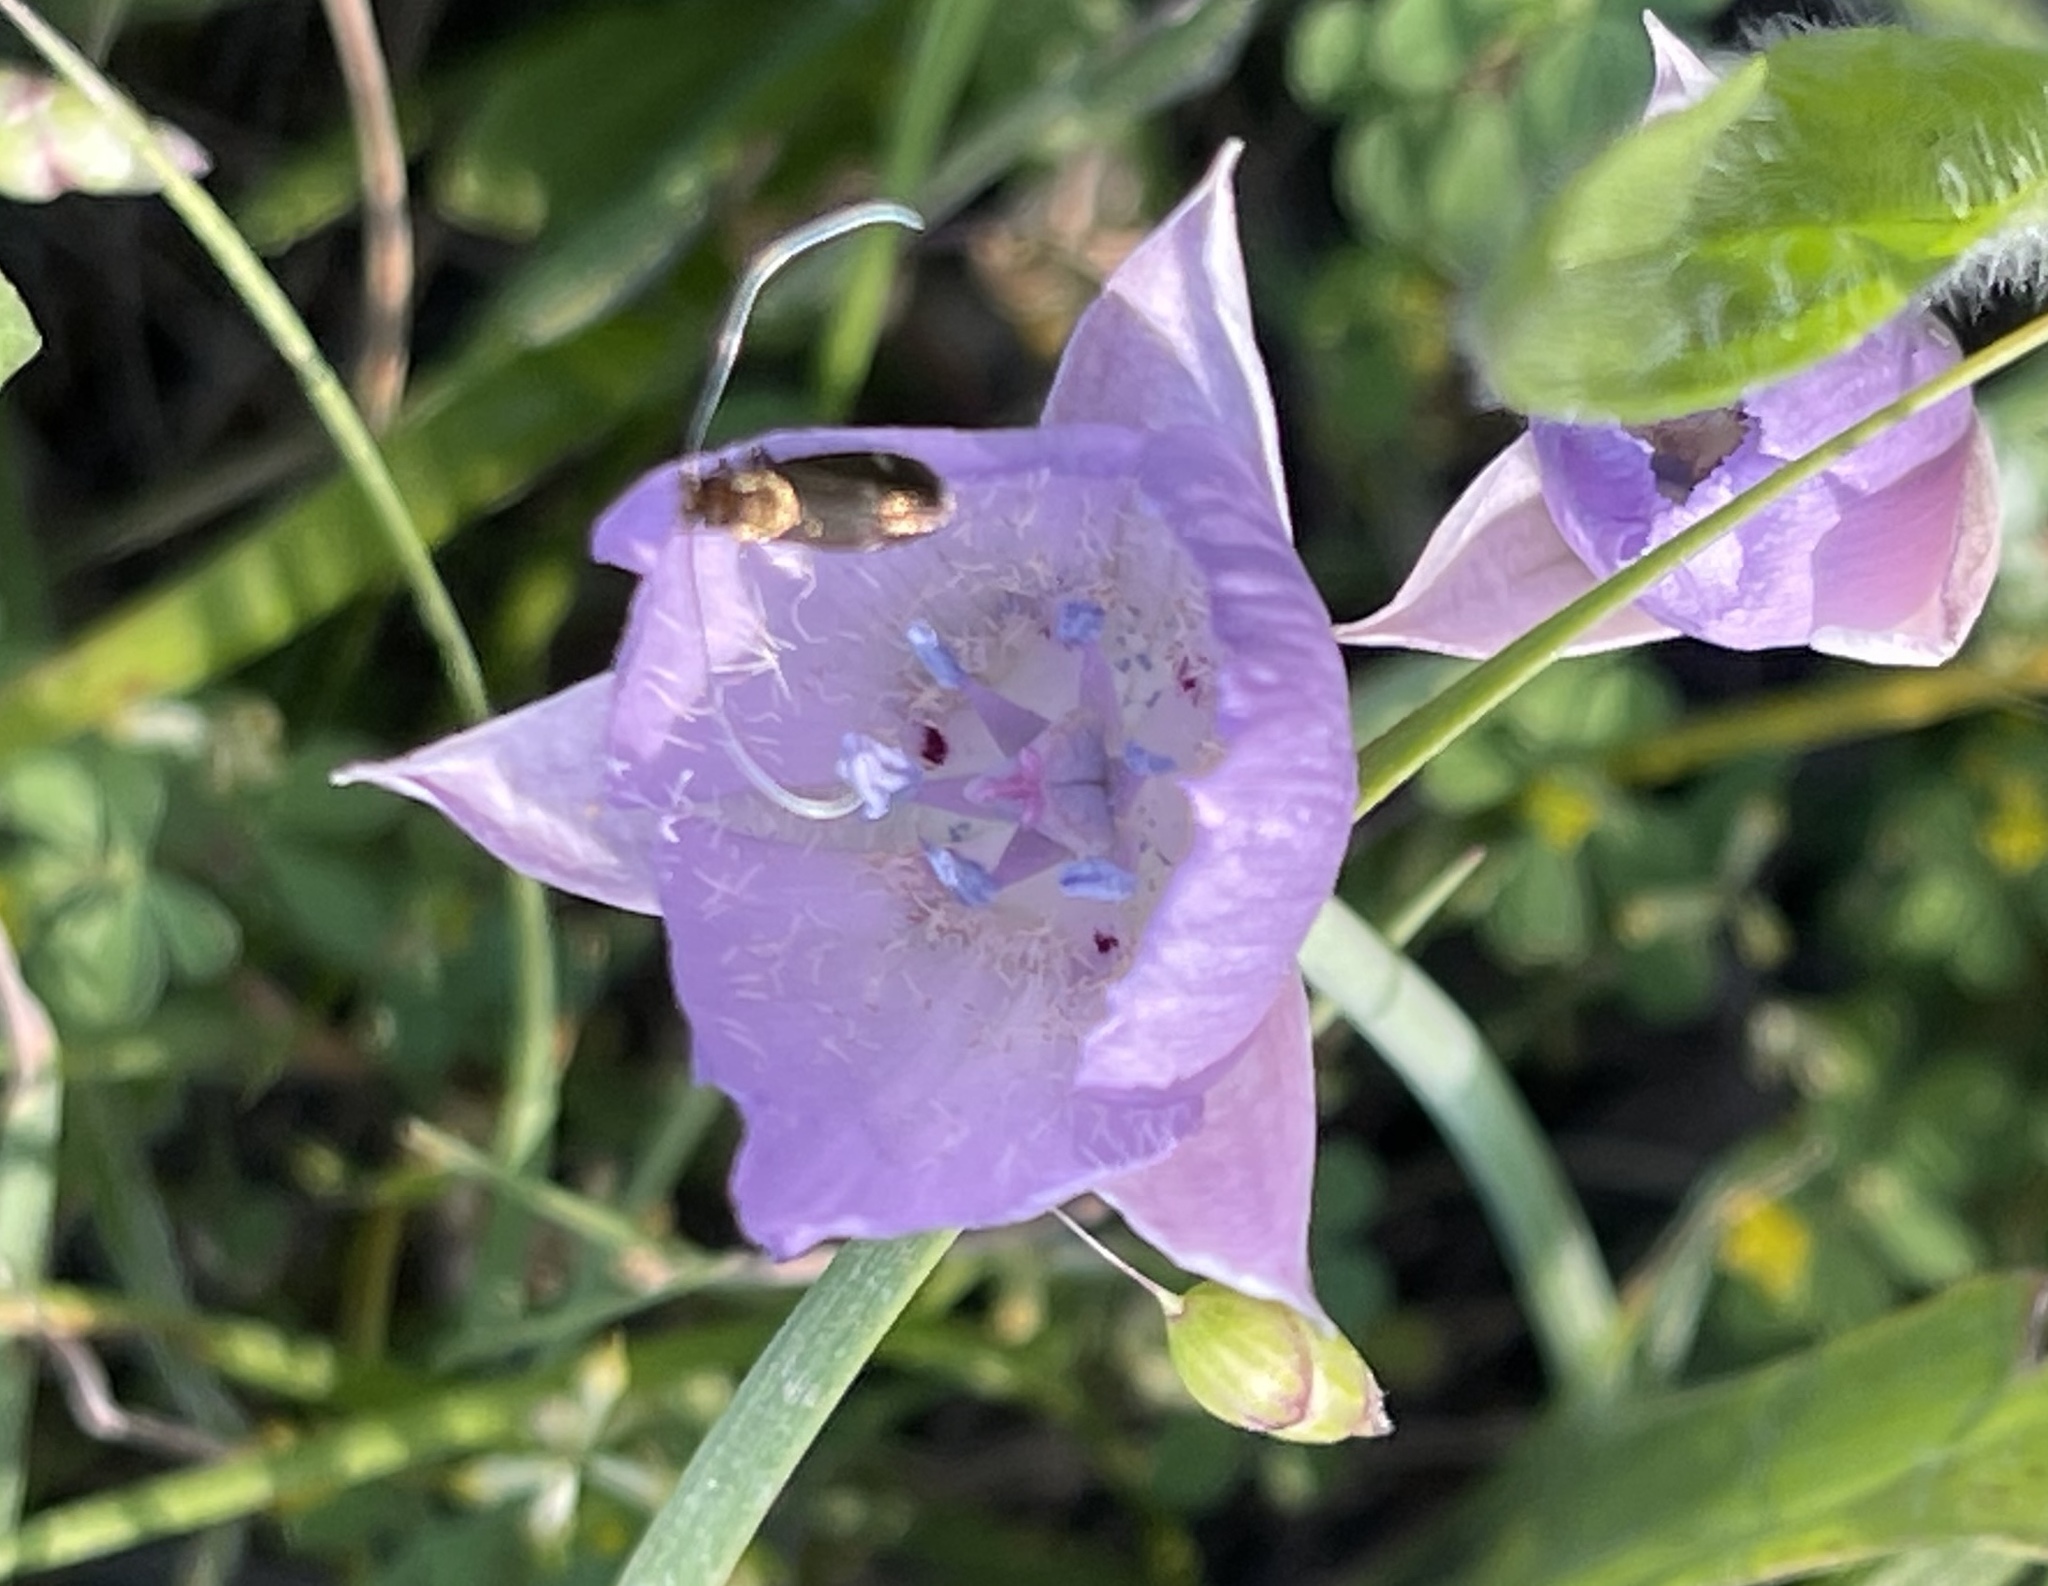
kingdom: Plantae
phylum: Tracheophyta
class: Liliopsida
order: Liliales
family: Liliaceae
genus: Calochortus
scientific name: Calochortus uniflorus
